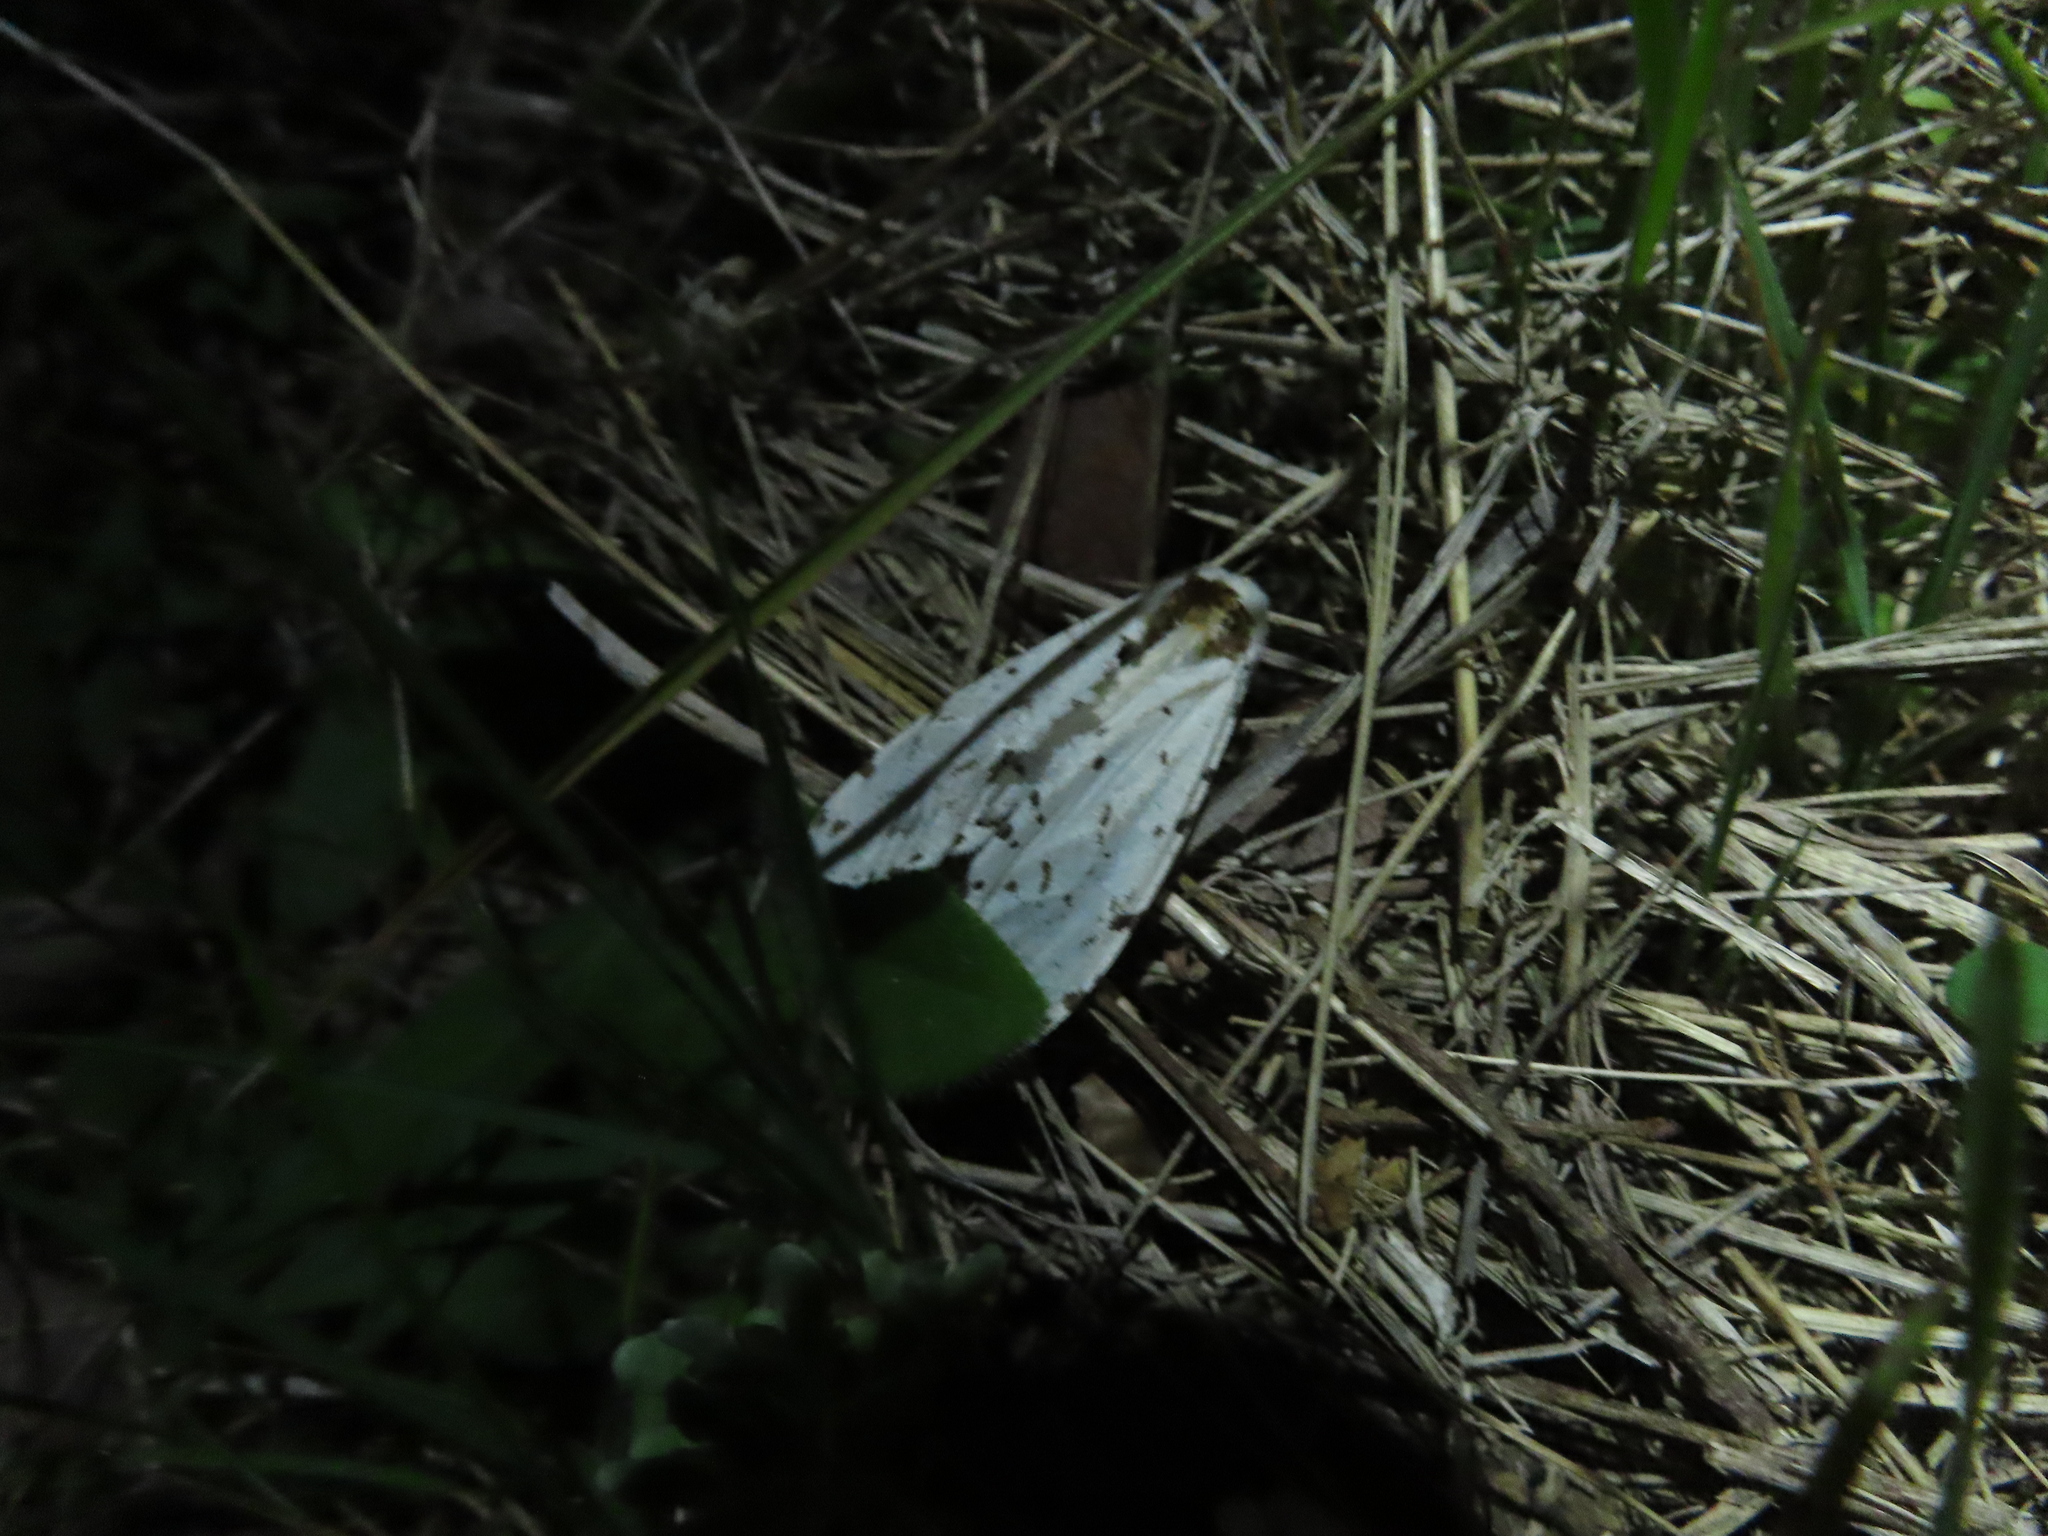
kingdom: Animalia
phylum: Arthropoda
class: Insecta
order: Lepidoptera
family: Erebidae
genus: Estigmene
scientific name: Estigmene acrea
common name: Salt marsh moth
